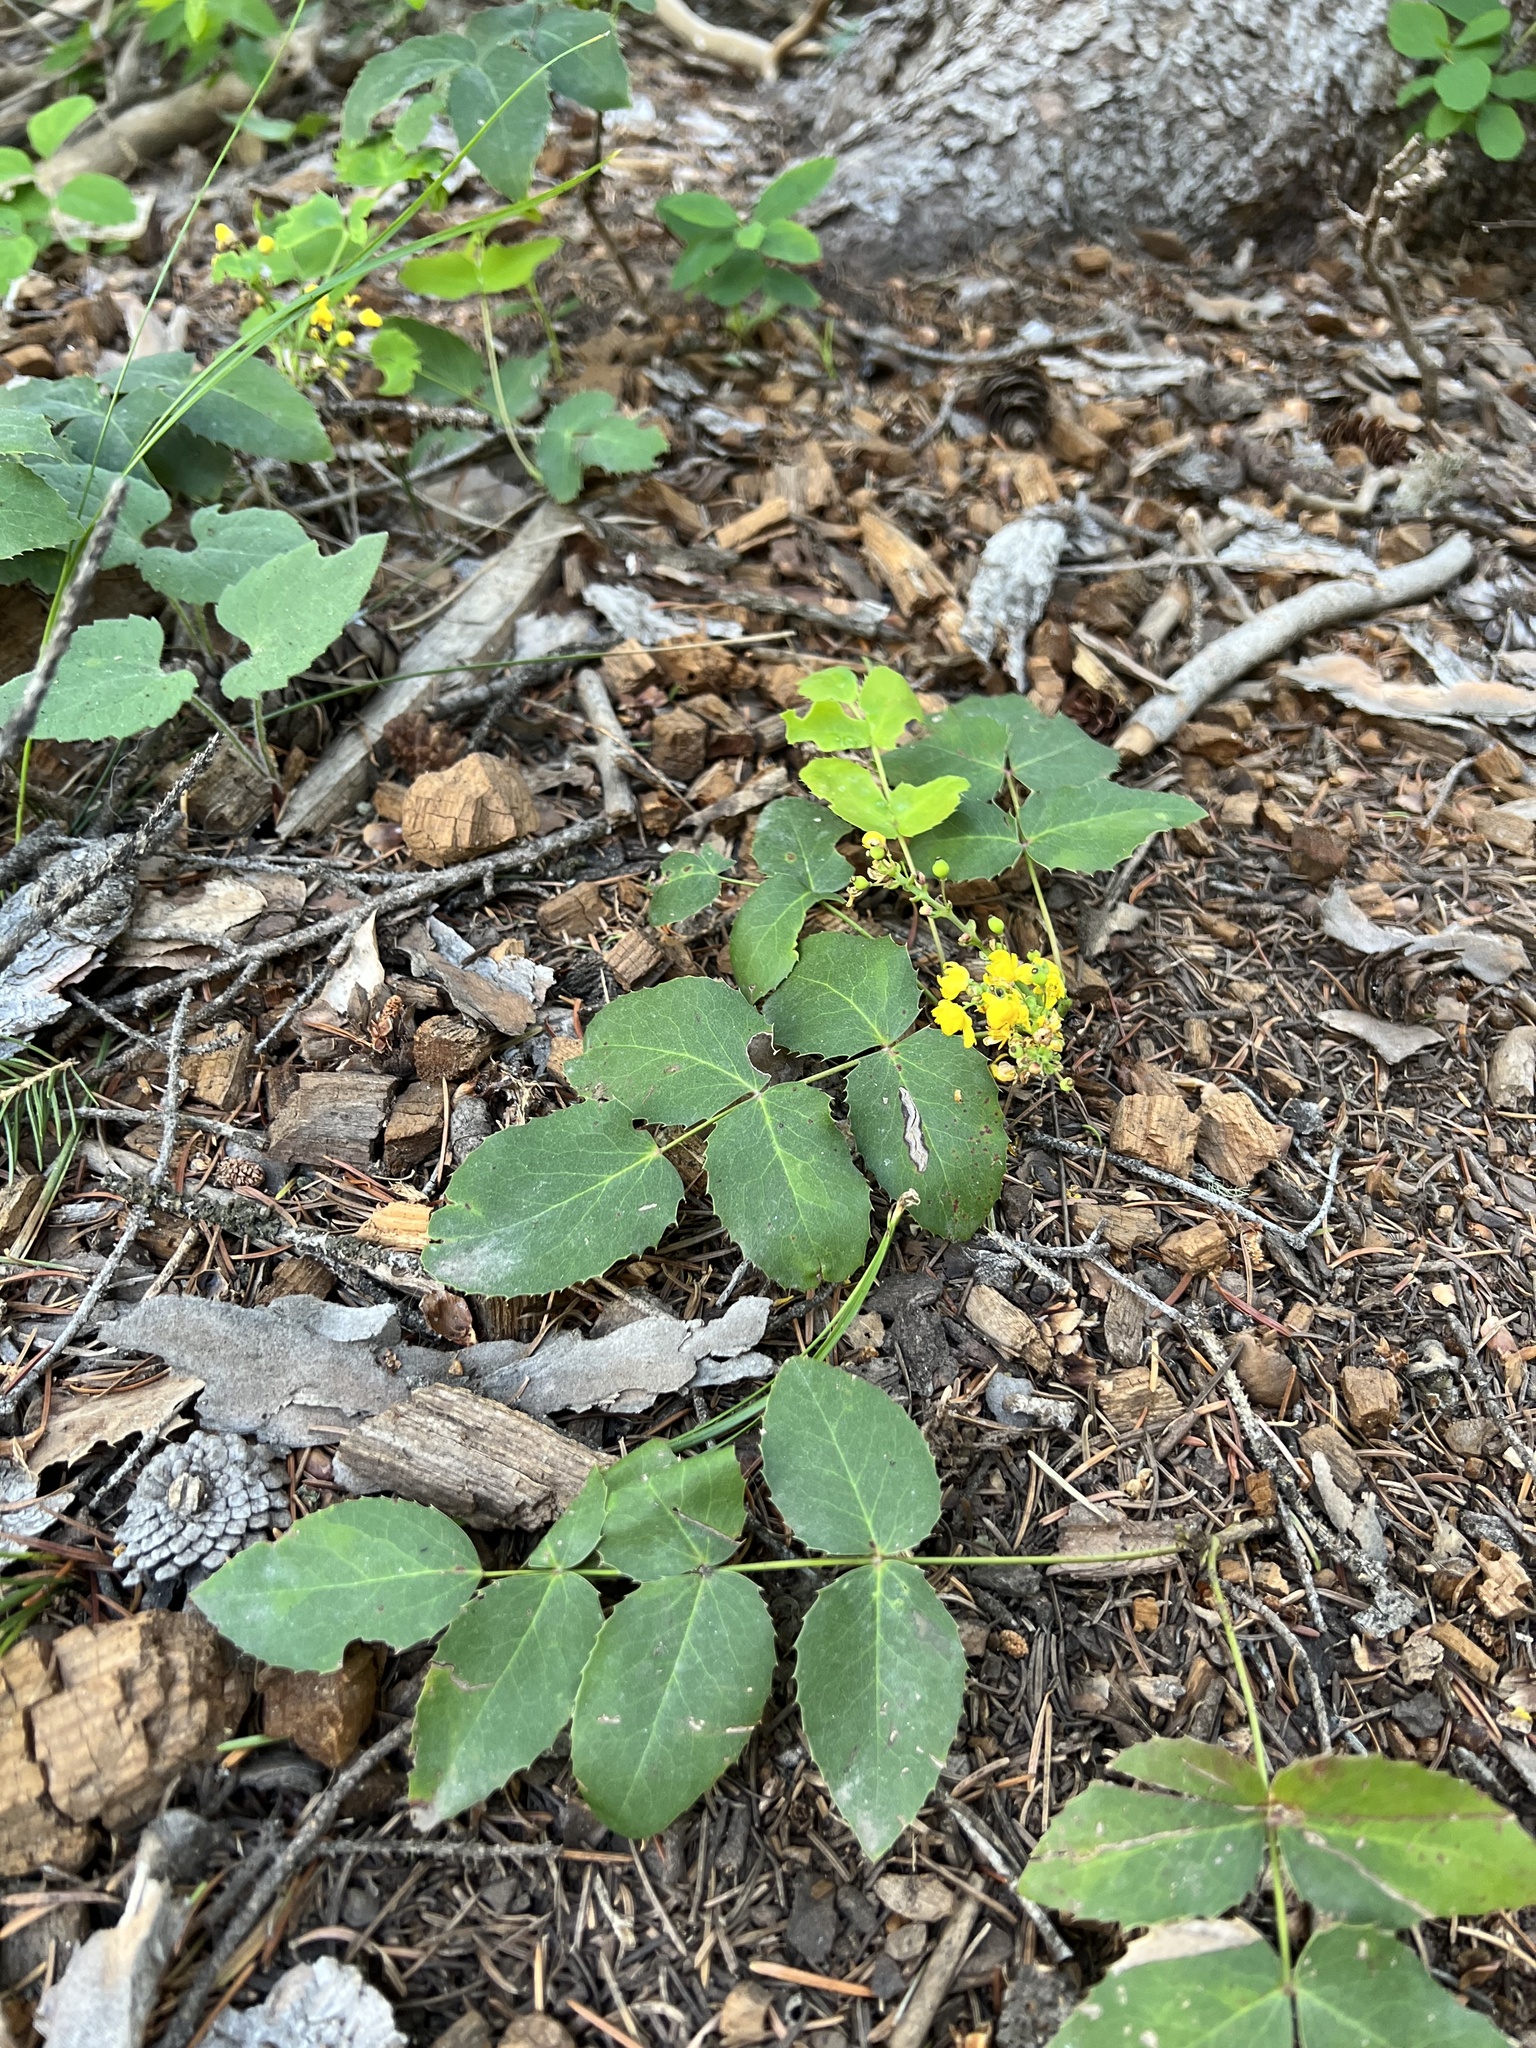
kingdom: Plantae
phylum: Tracheophyta
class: Magnoliopsida
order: Ranunculales
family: Berberidaceae
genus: Mahonia
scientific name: Mahonia repens
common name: Creeping oregon-grape
